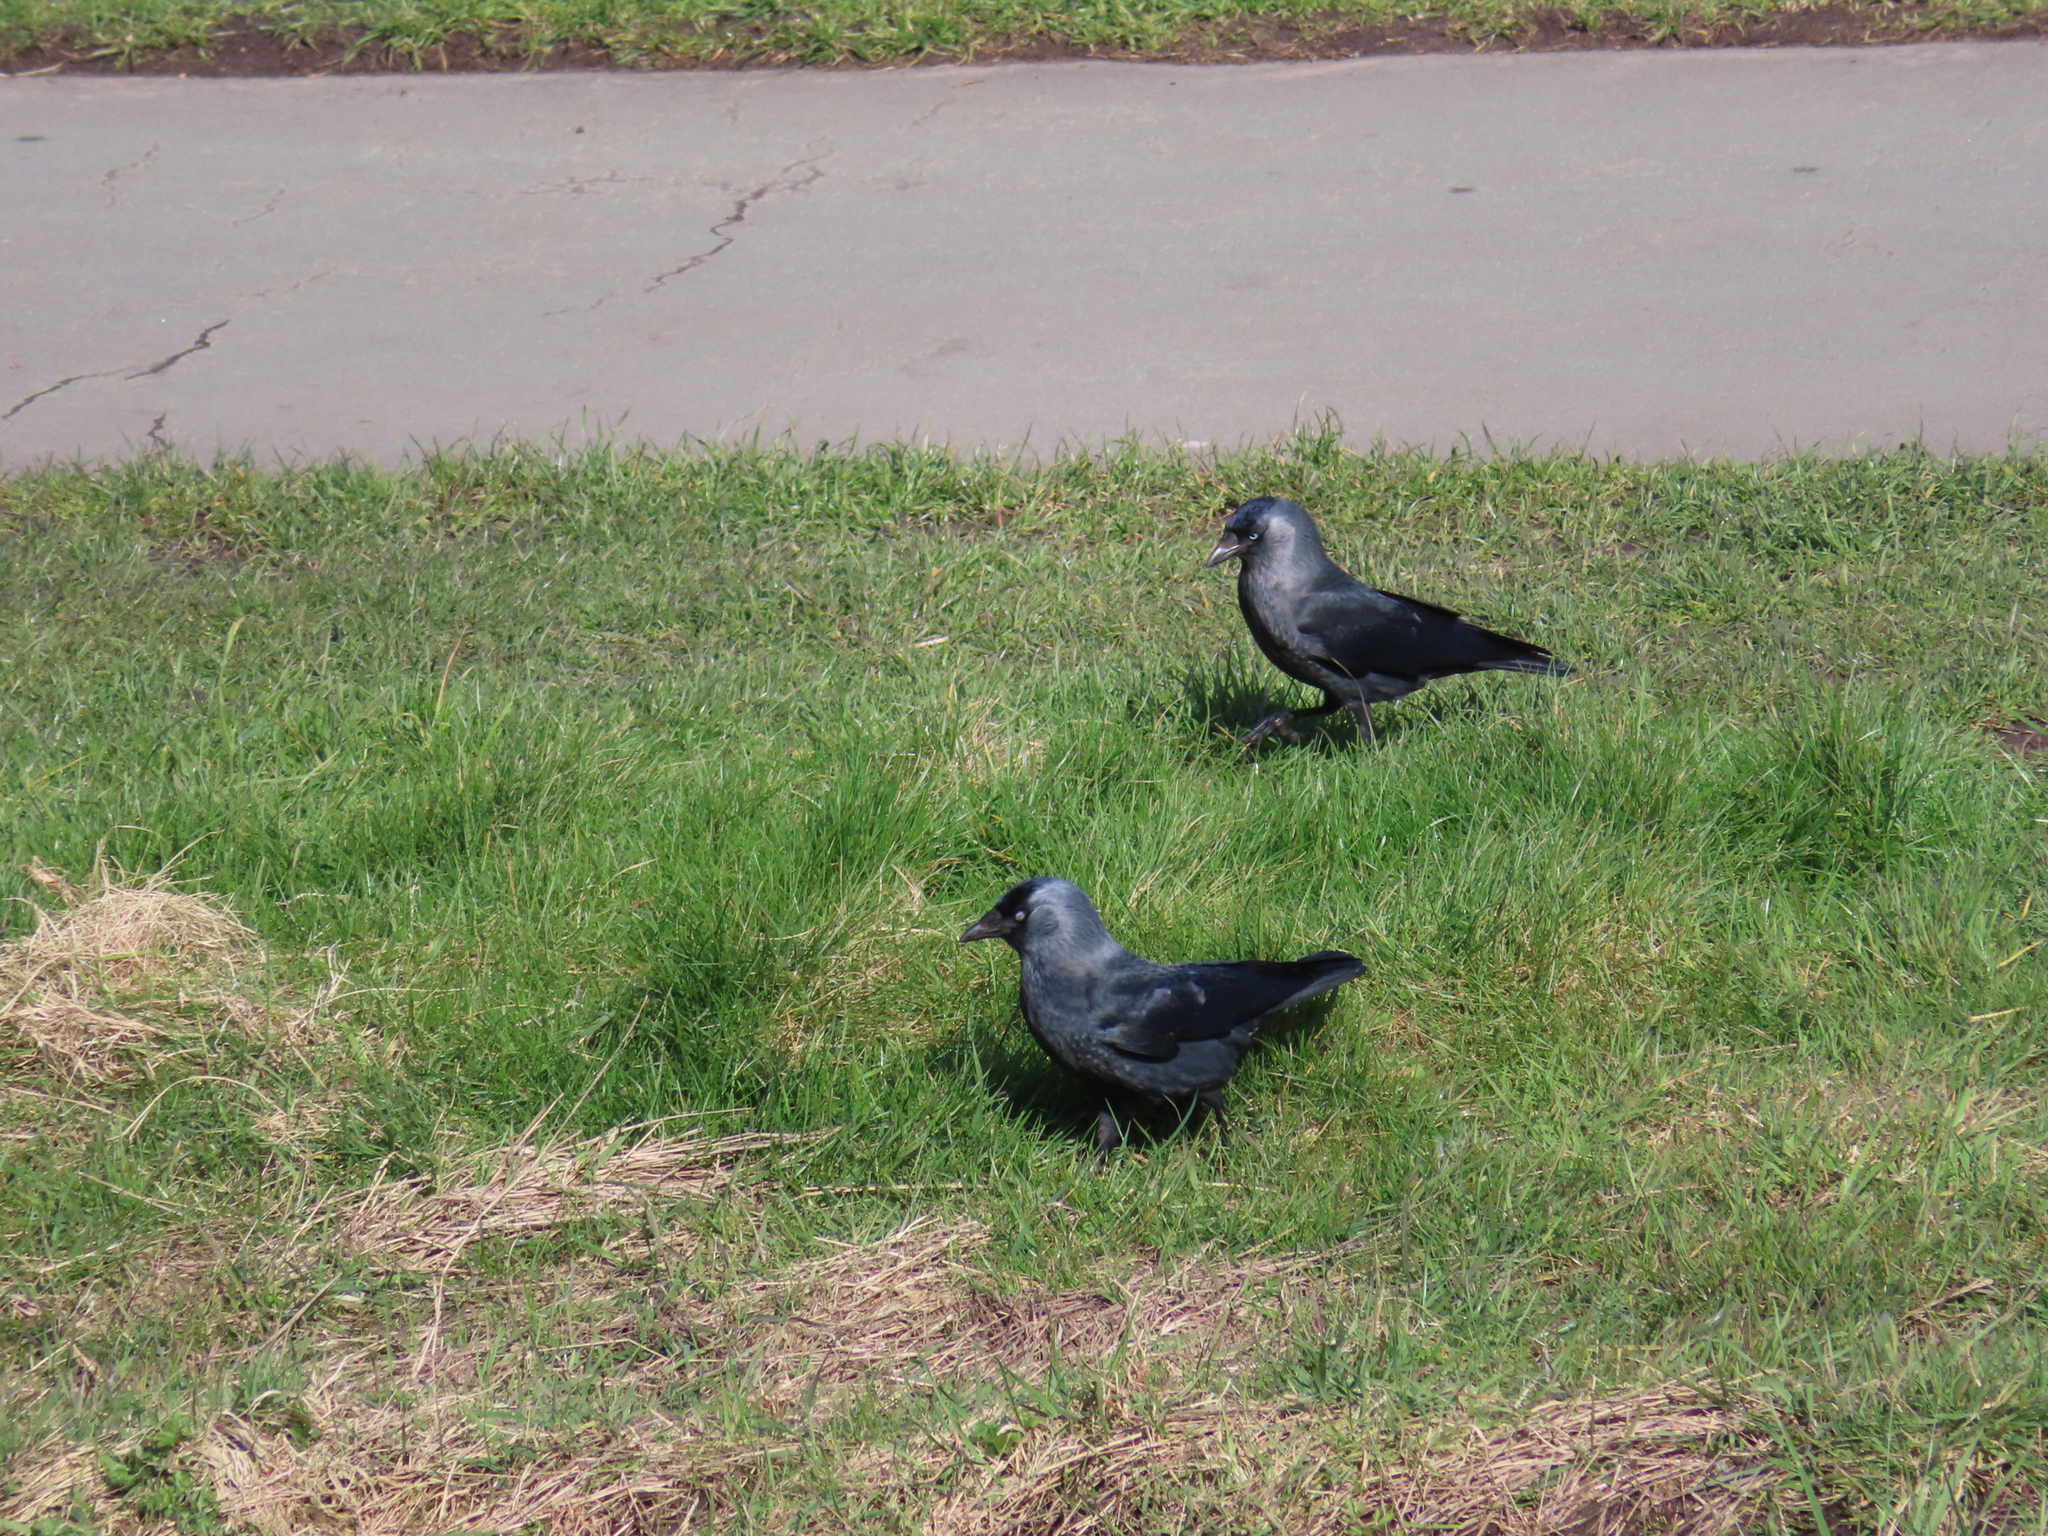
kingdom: Animalia
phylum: Chordata
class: Aves
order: Passeriformes
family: Corvidae
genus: Coloeus
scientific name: Coloeus monedula
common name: Western jackdaw
